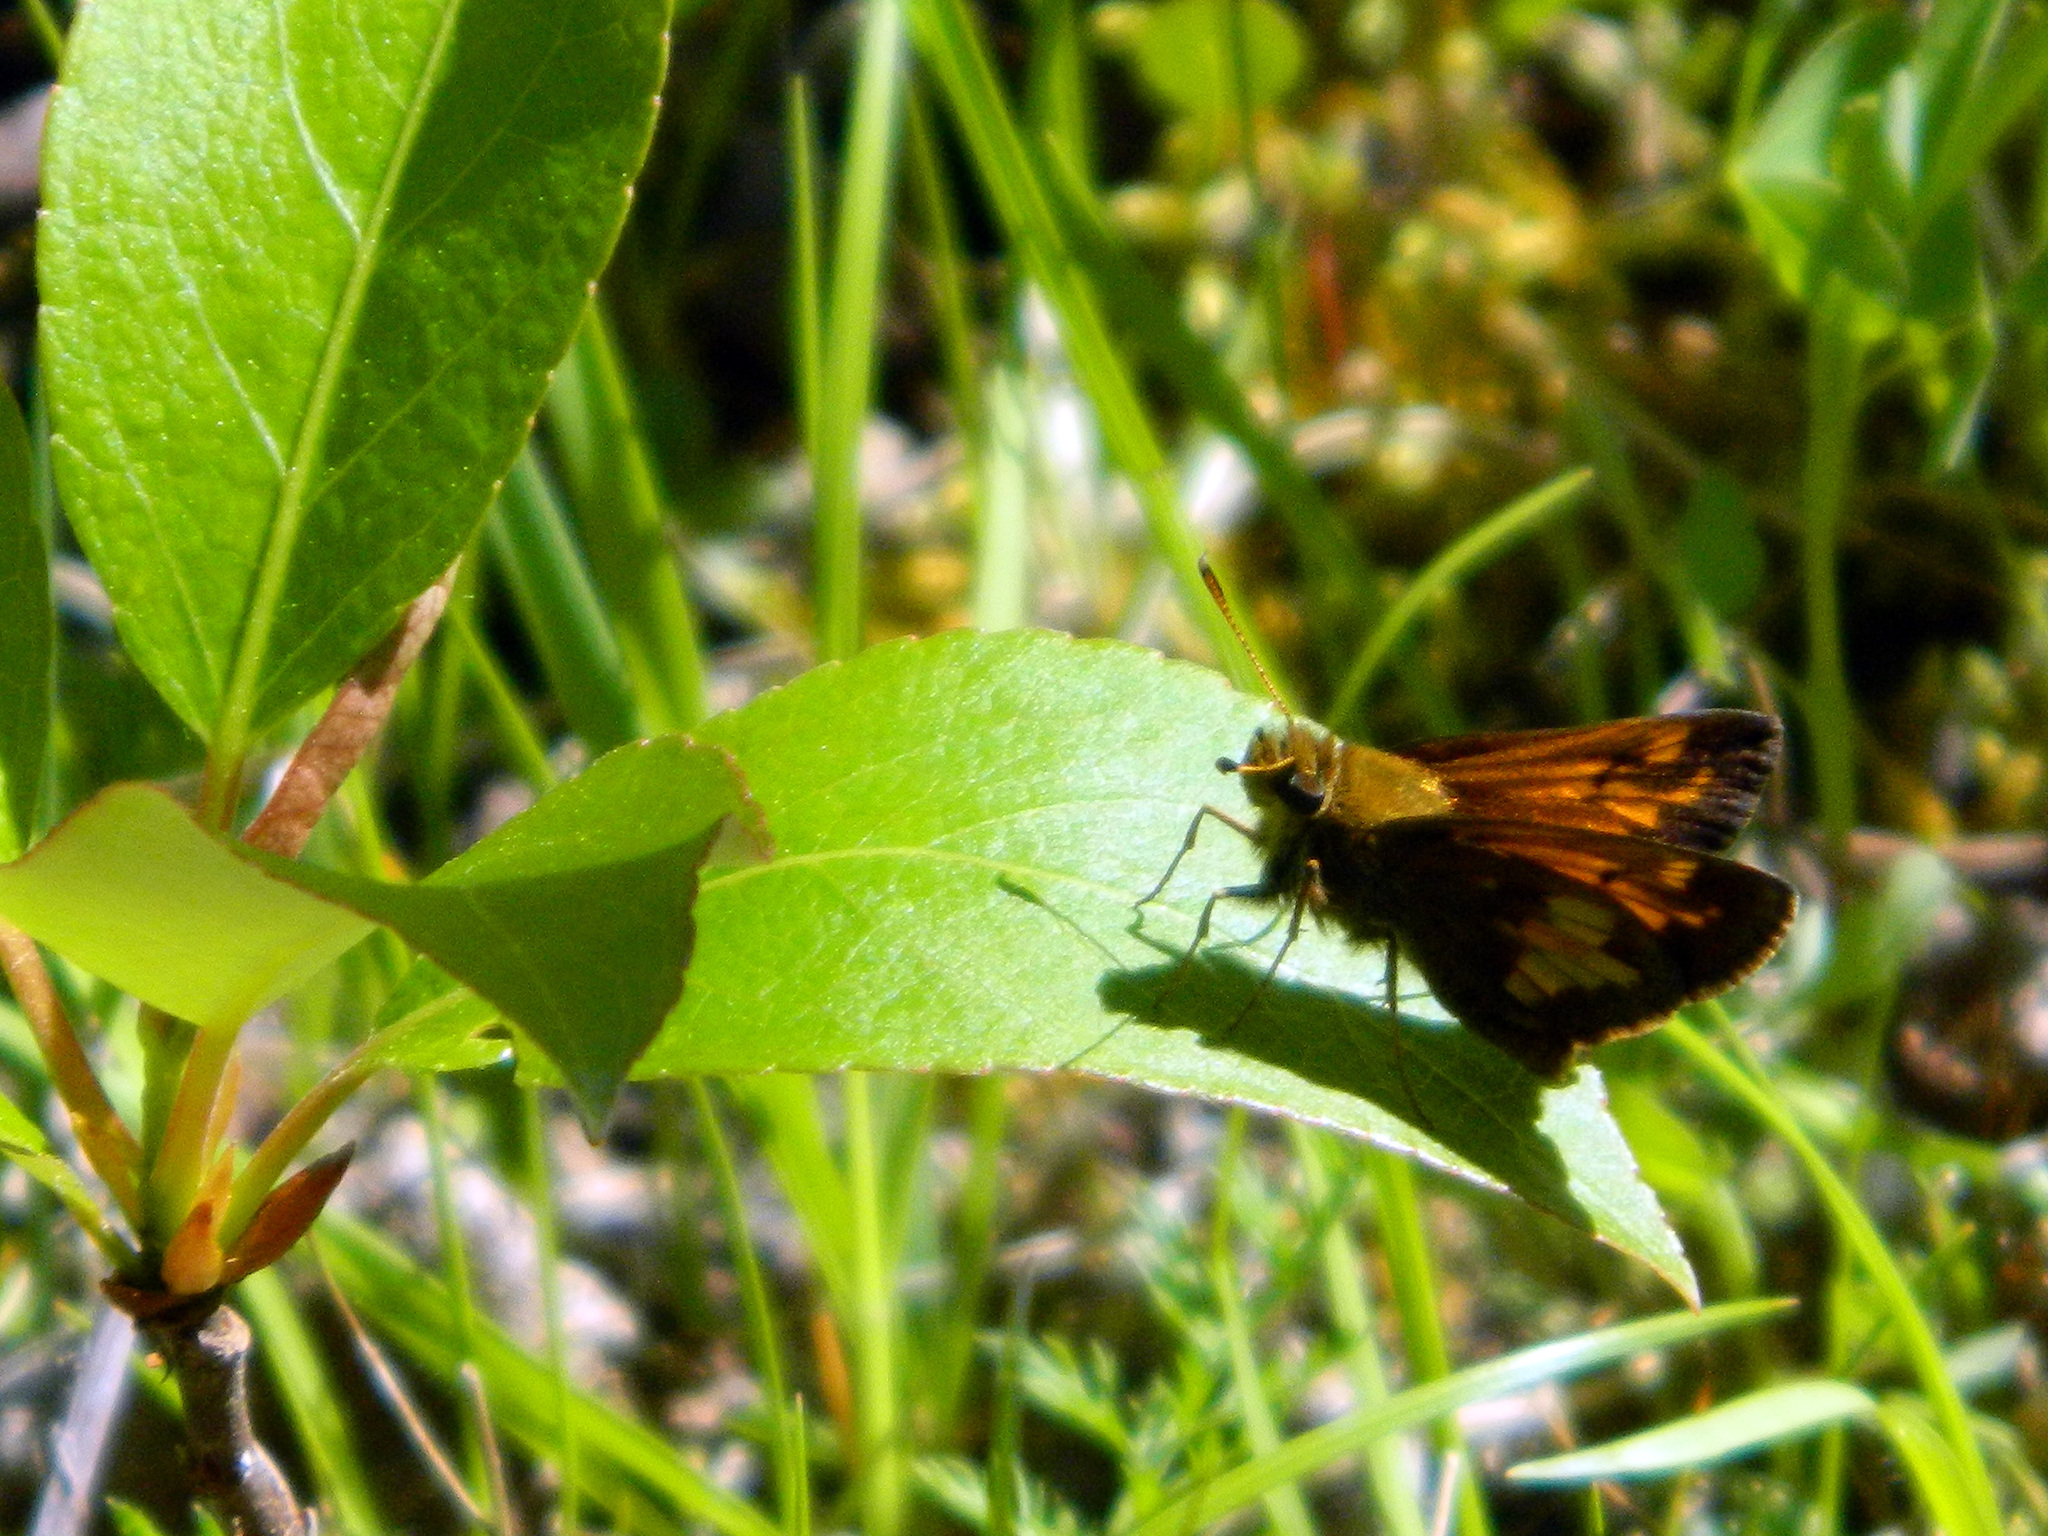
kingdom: Animalia
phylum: Arthropoda
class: Insecta
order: Lepidoptera
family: Hesperiidae
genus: Lon
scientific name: Lon hobomok
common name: Hobomok skipper
